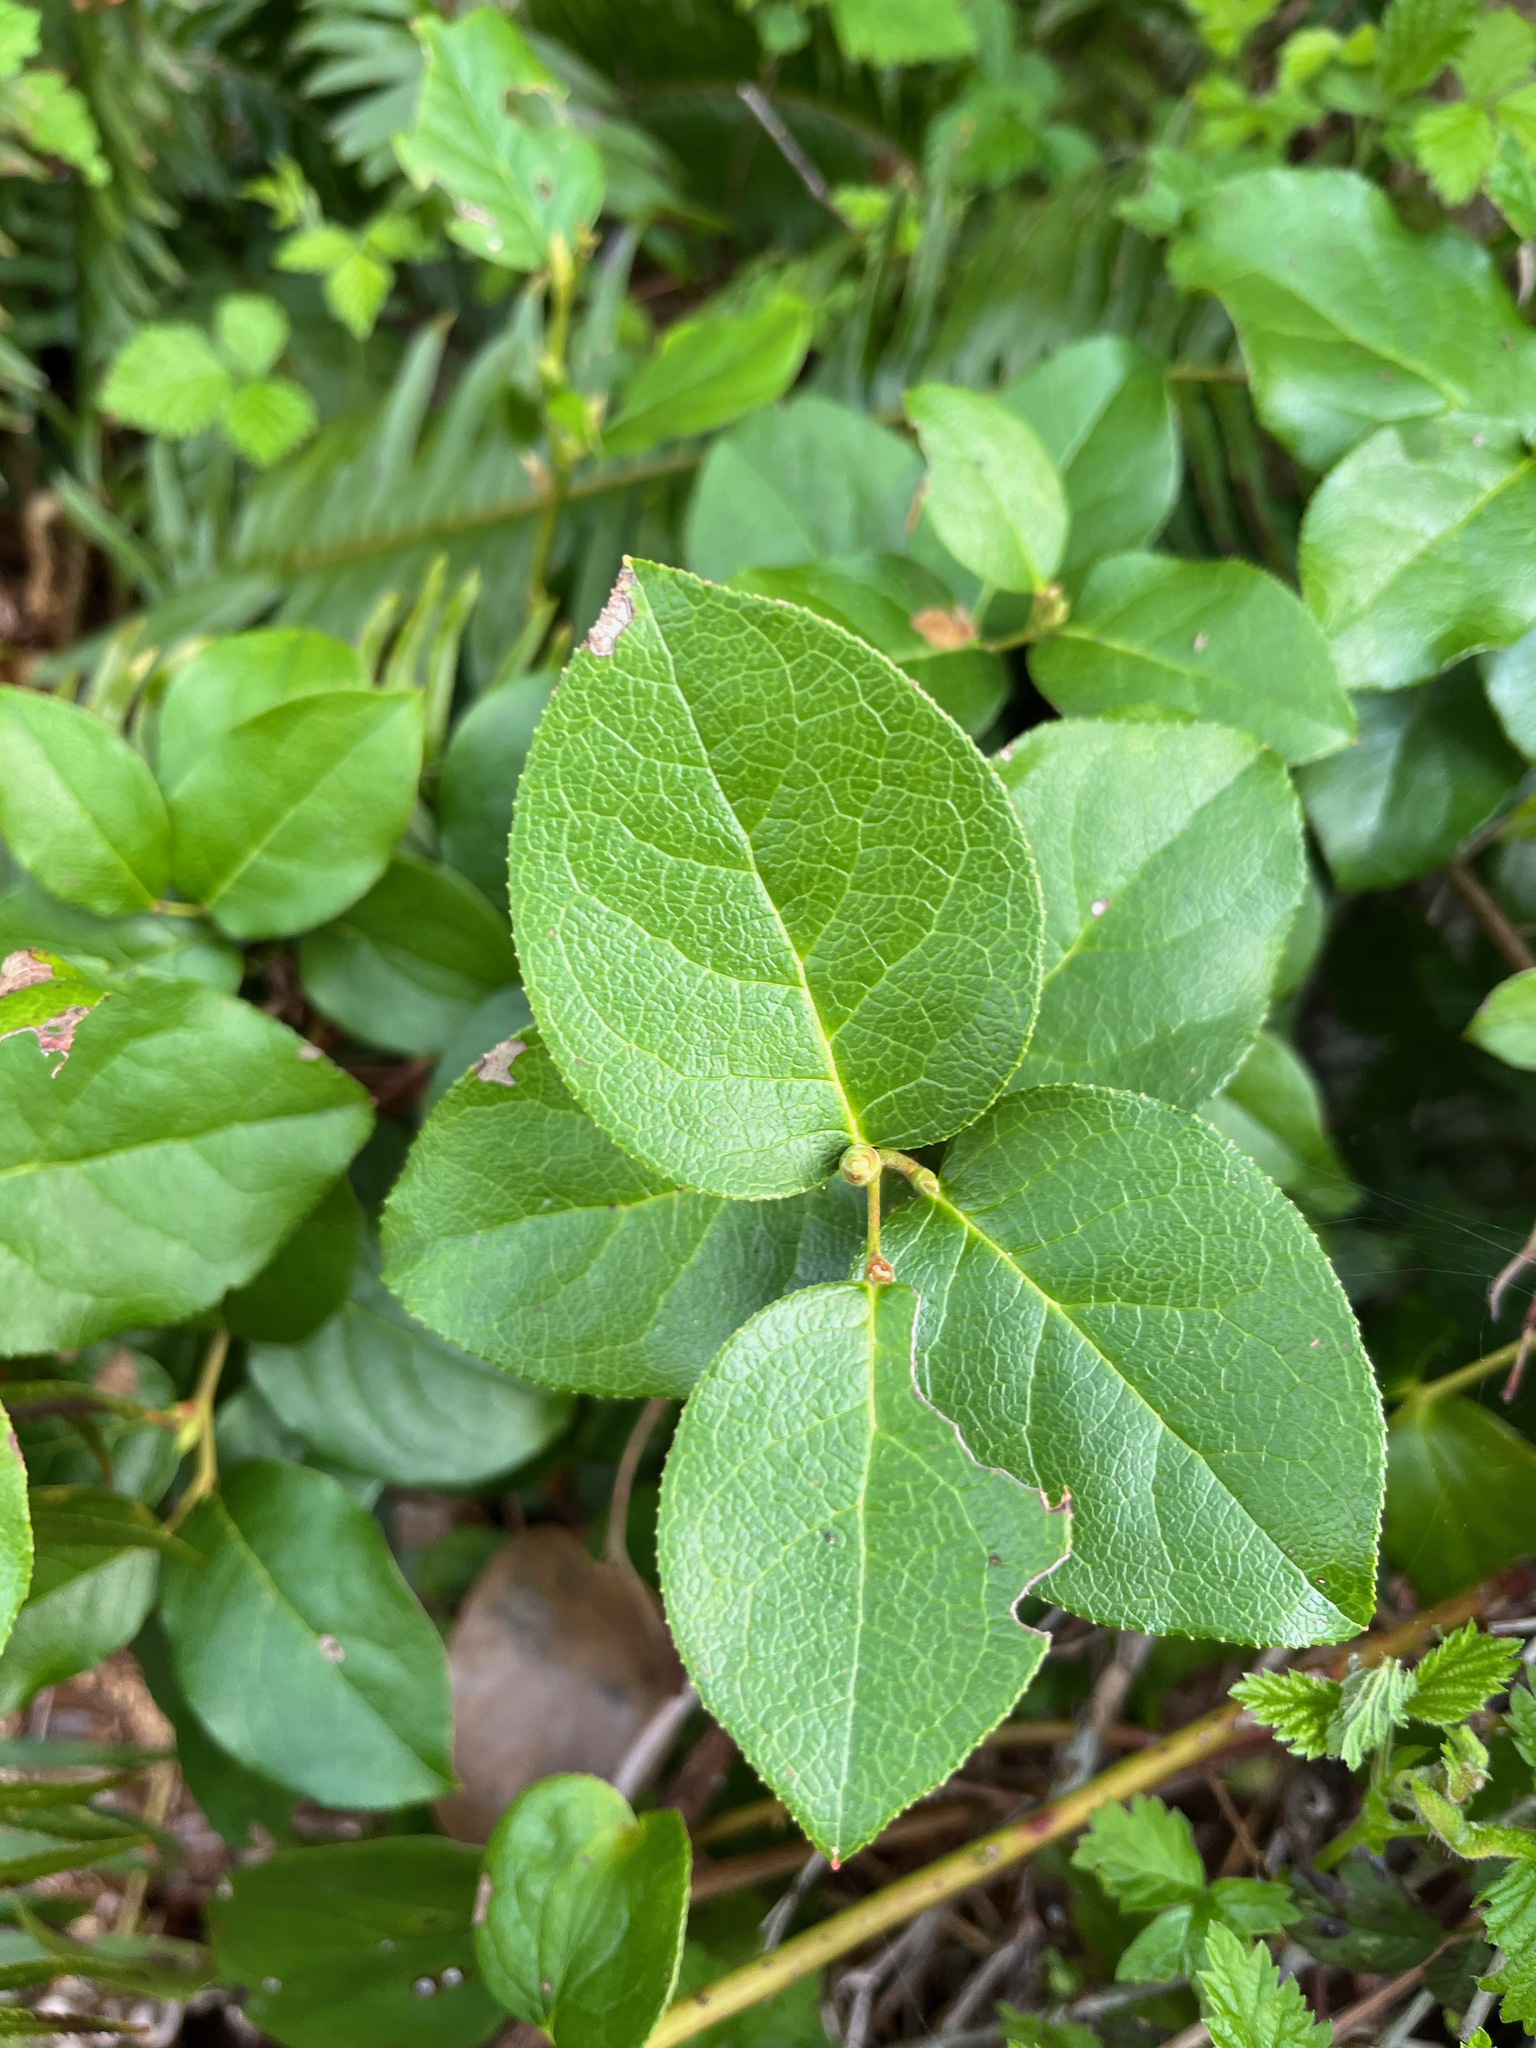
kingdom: Plantae
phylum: Tracheophyta
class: Magnoliopsida
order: Ericales
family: Ericaceae
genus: Gaultheria
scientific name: Gaultheria shallon
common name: Shallon
